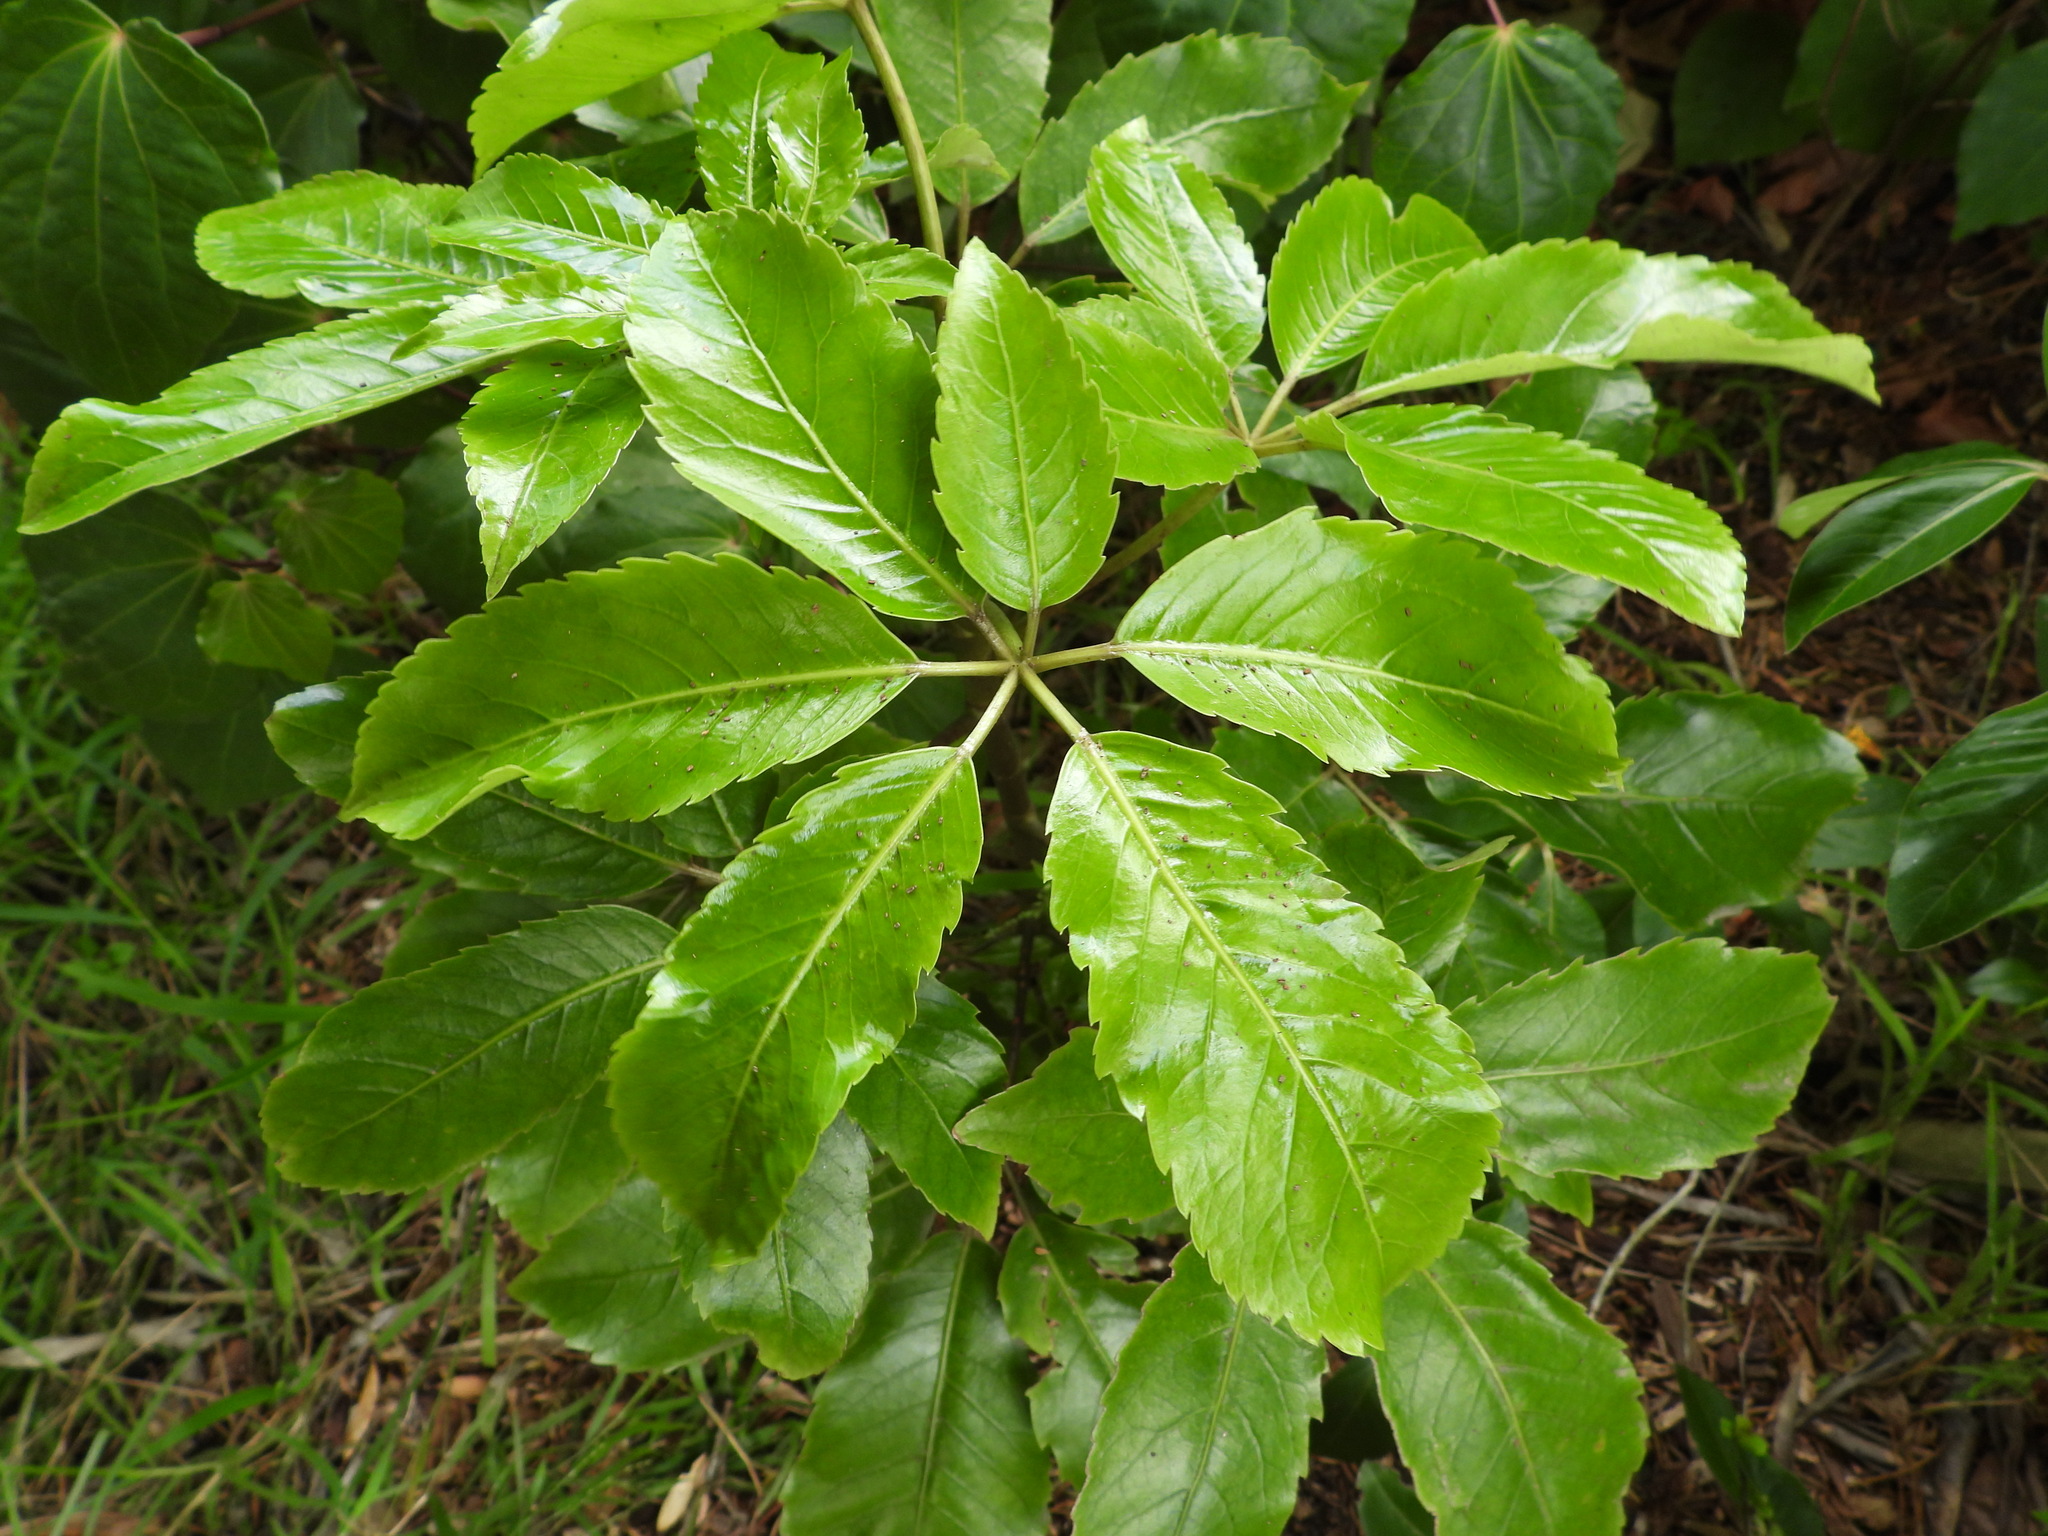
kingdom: Plantae
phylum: Tracheophyta
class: Magnoliopsida
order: Apiales
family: Araliaceae
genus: Neopanax
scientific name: Neopanax arboreus
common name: Five-fingers
